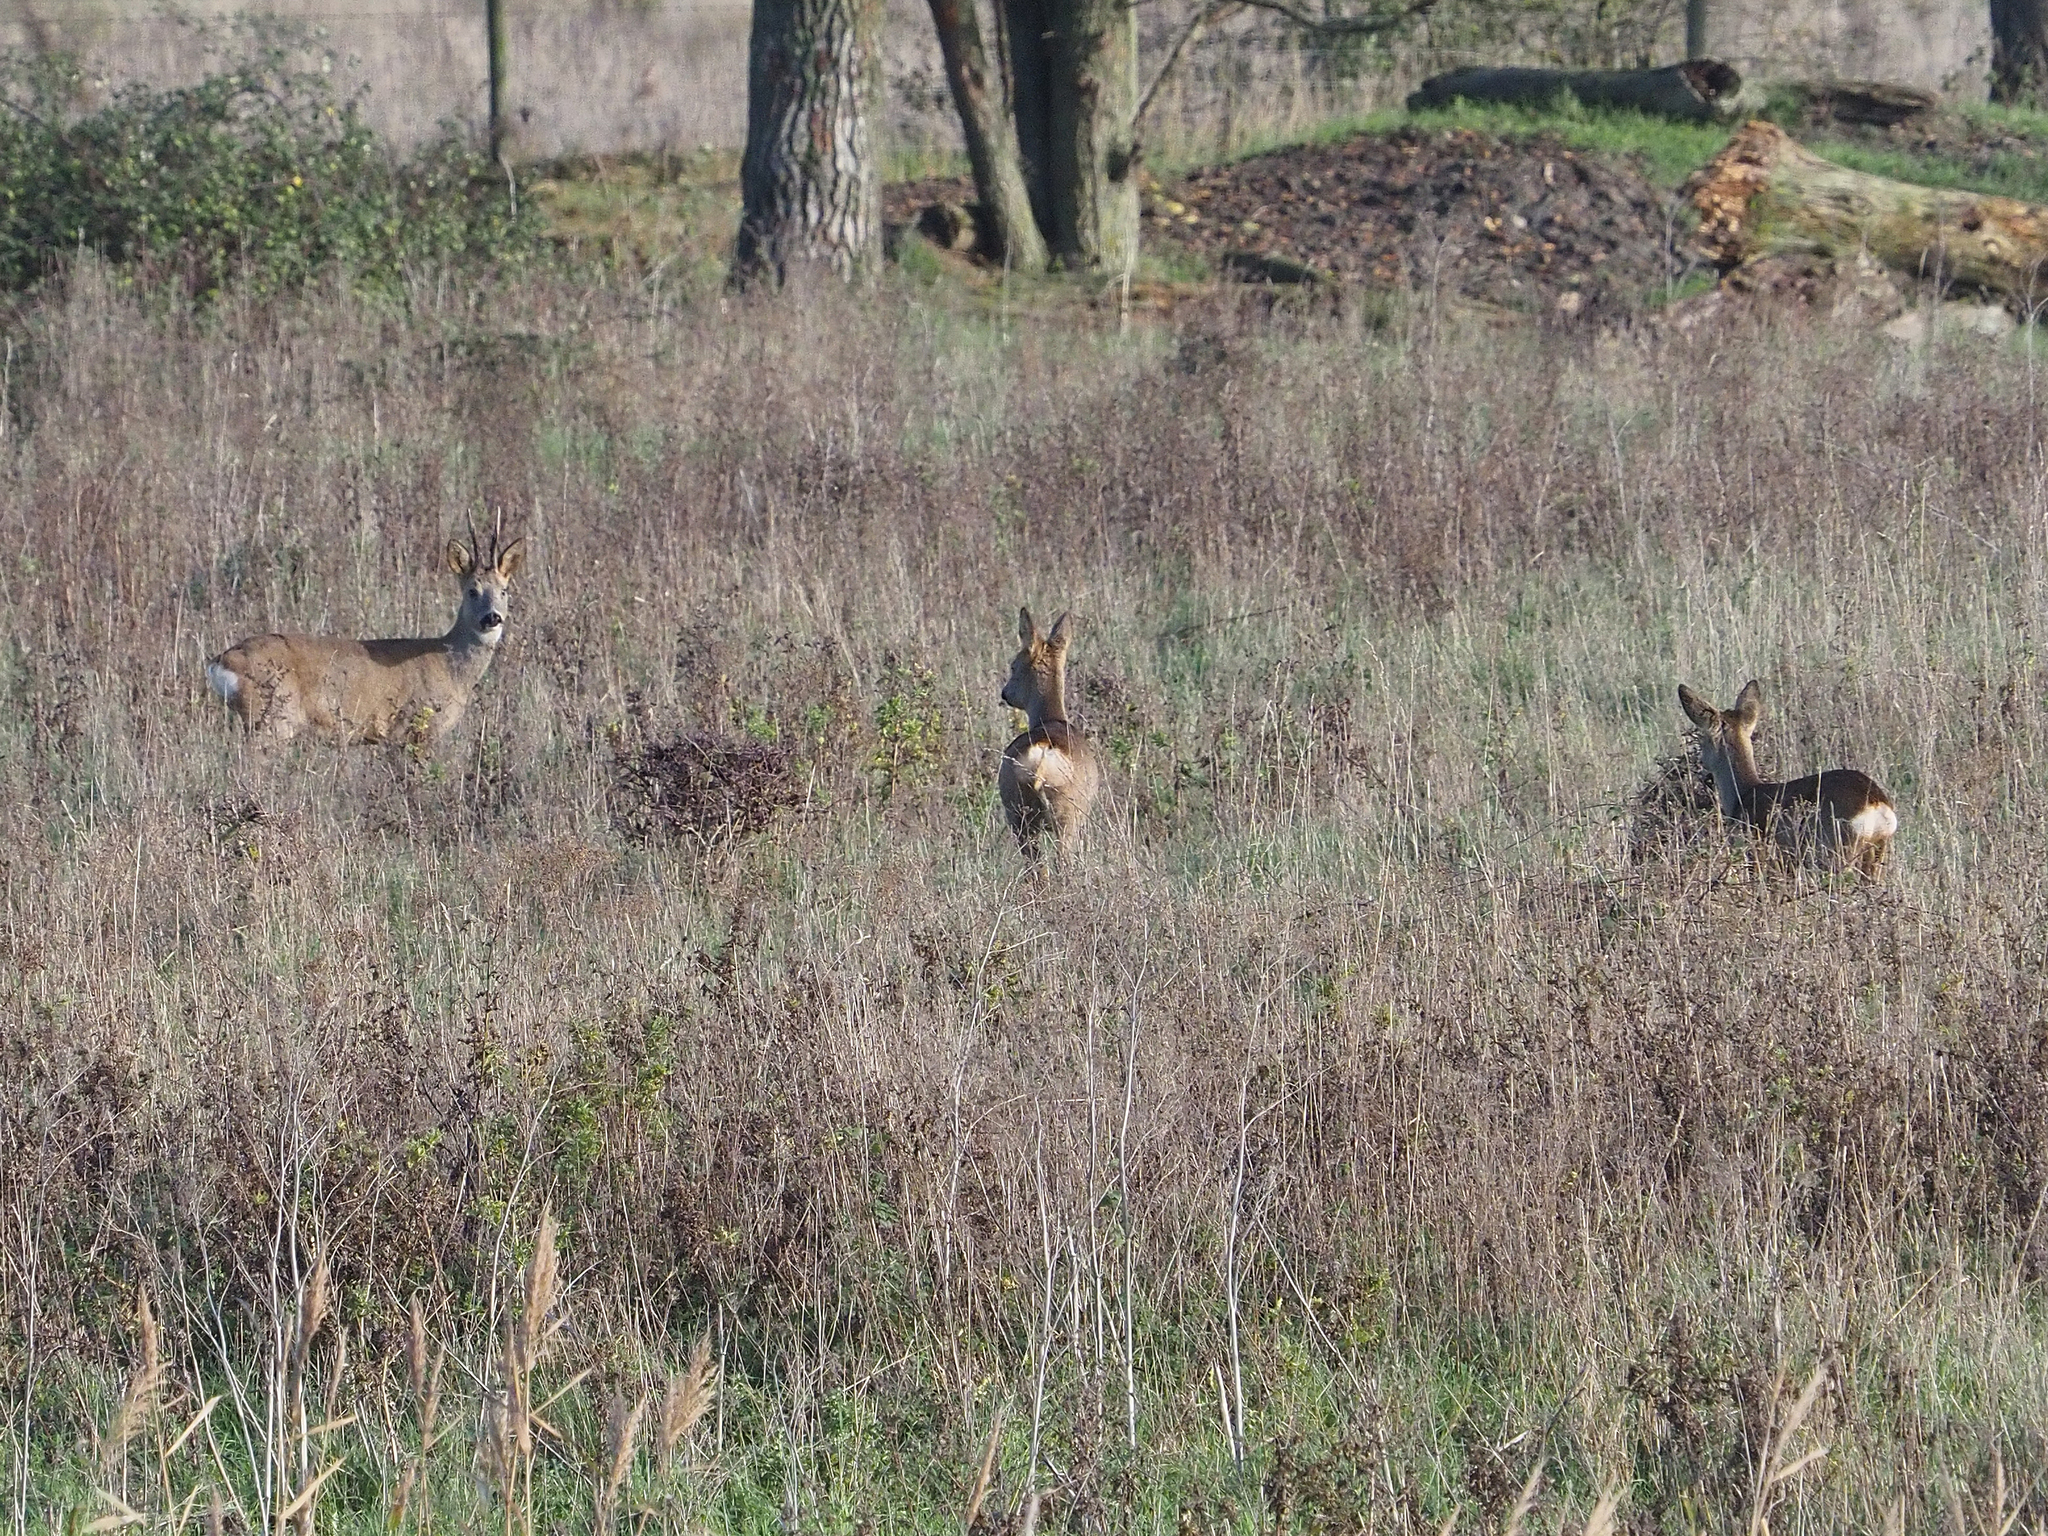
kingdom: Animalia
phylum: Chordata
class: Mammalia
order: Artiodactyla
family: Cervidae
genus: Capreolus
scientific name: Capreolus capreolus
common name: Western roe deer
